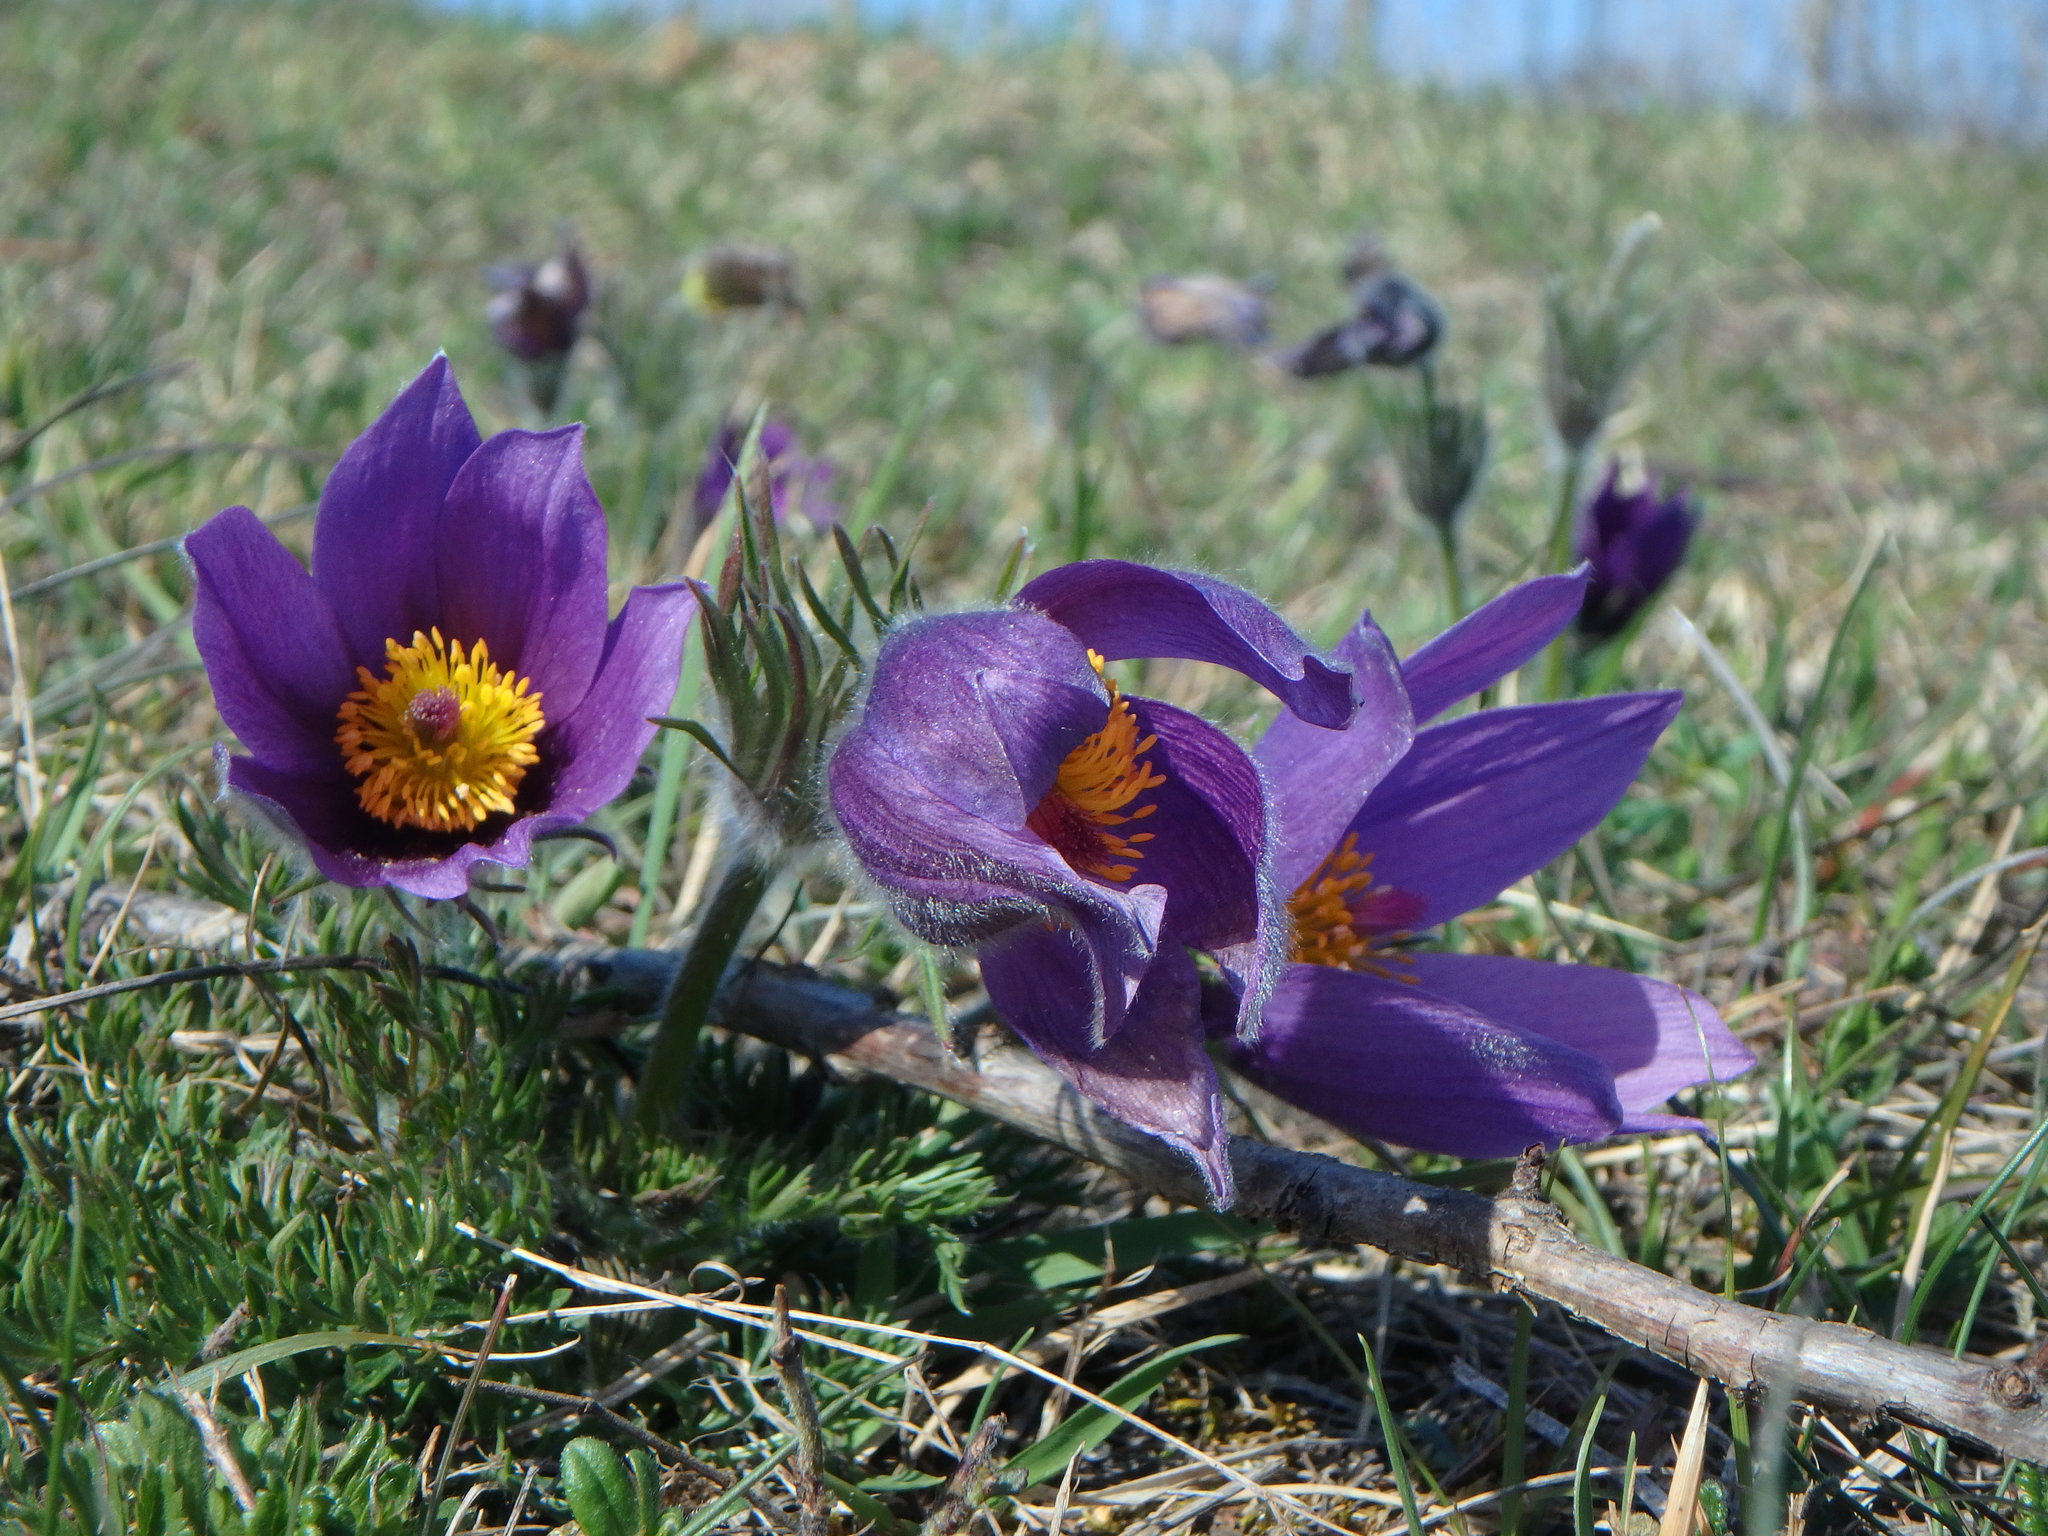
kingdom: Plantae
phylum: Tracheophyta
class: Magnoliopsida
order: Ranunculales
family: Ranunculaceae
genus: Pulsatilla
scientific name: Pulsatilla vulgaris
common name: Pasqueflower
